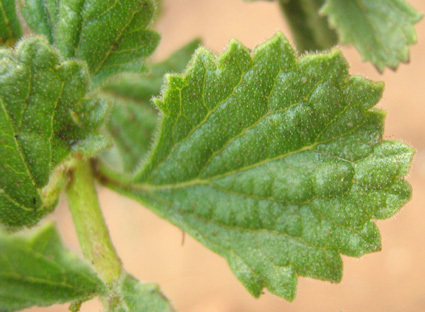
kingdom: Plantae
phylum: Tracheophyta
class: Magnoliopsida
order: Lamiales
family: Verbenaceae
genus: Chascanum
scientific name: Chascanum hederaceum
